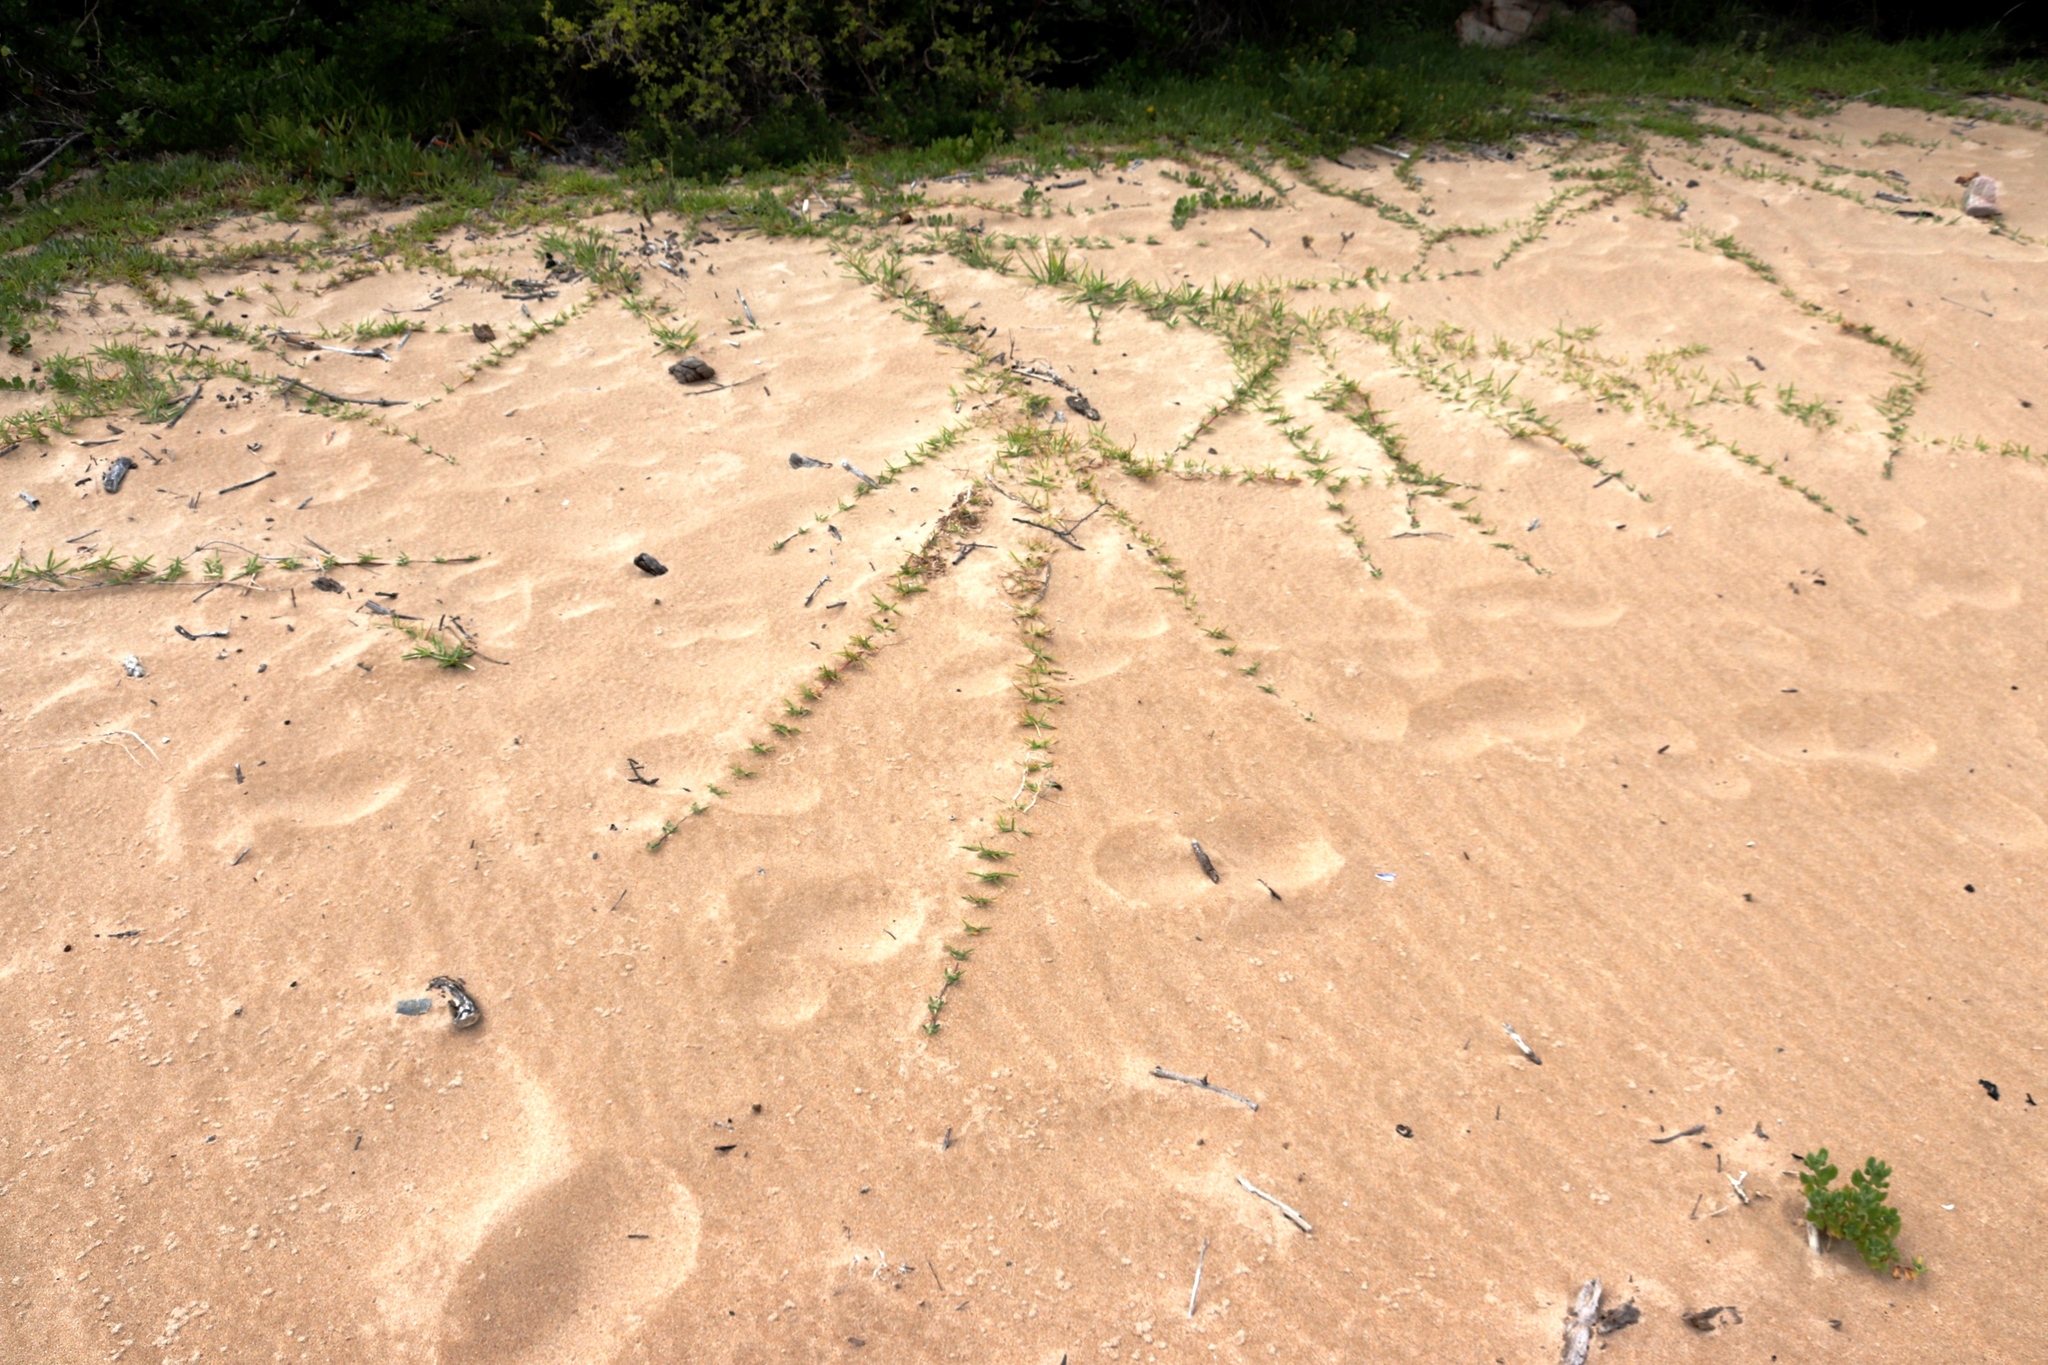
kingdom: Plantae
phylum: Tracheophyta
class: Liliopsida
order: Poales
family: Poaceae
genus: Stenotaphrum
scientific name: Stenotaphrum secundatum
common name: St. augustine grass
